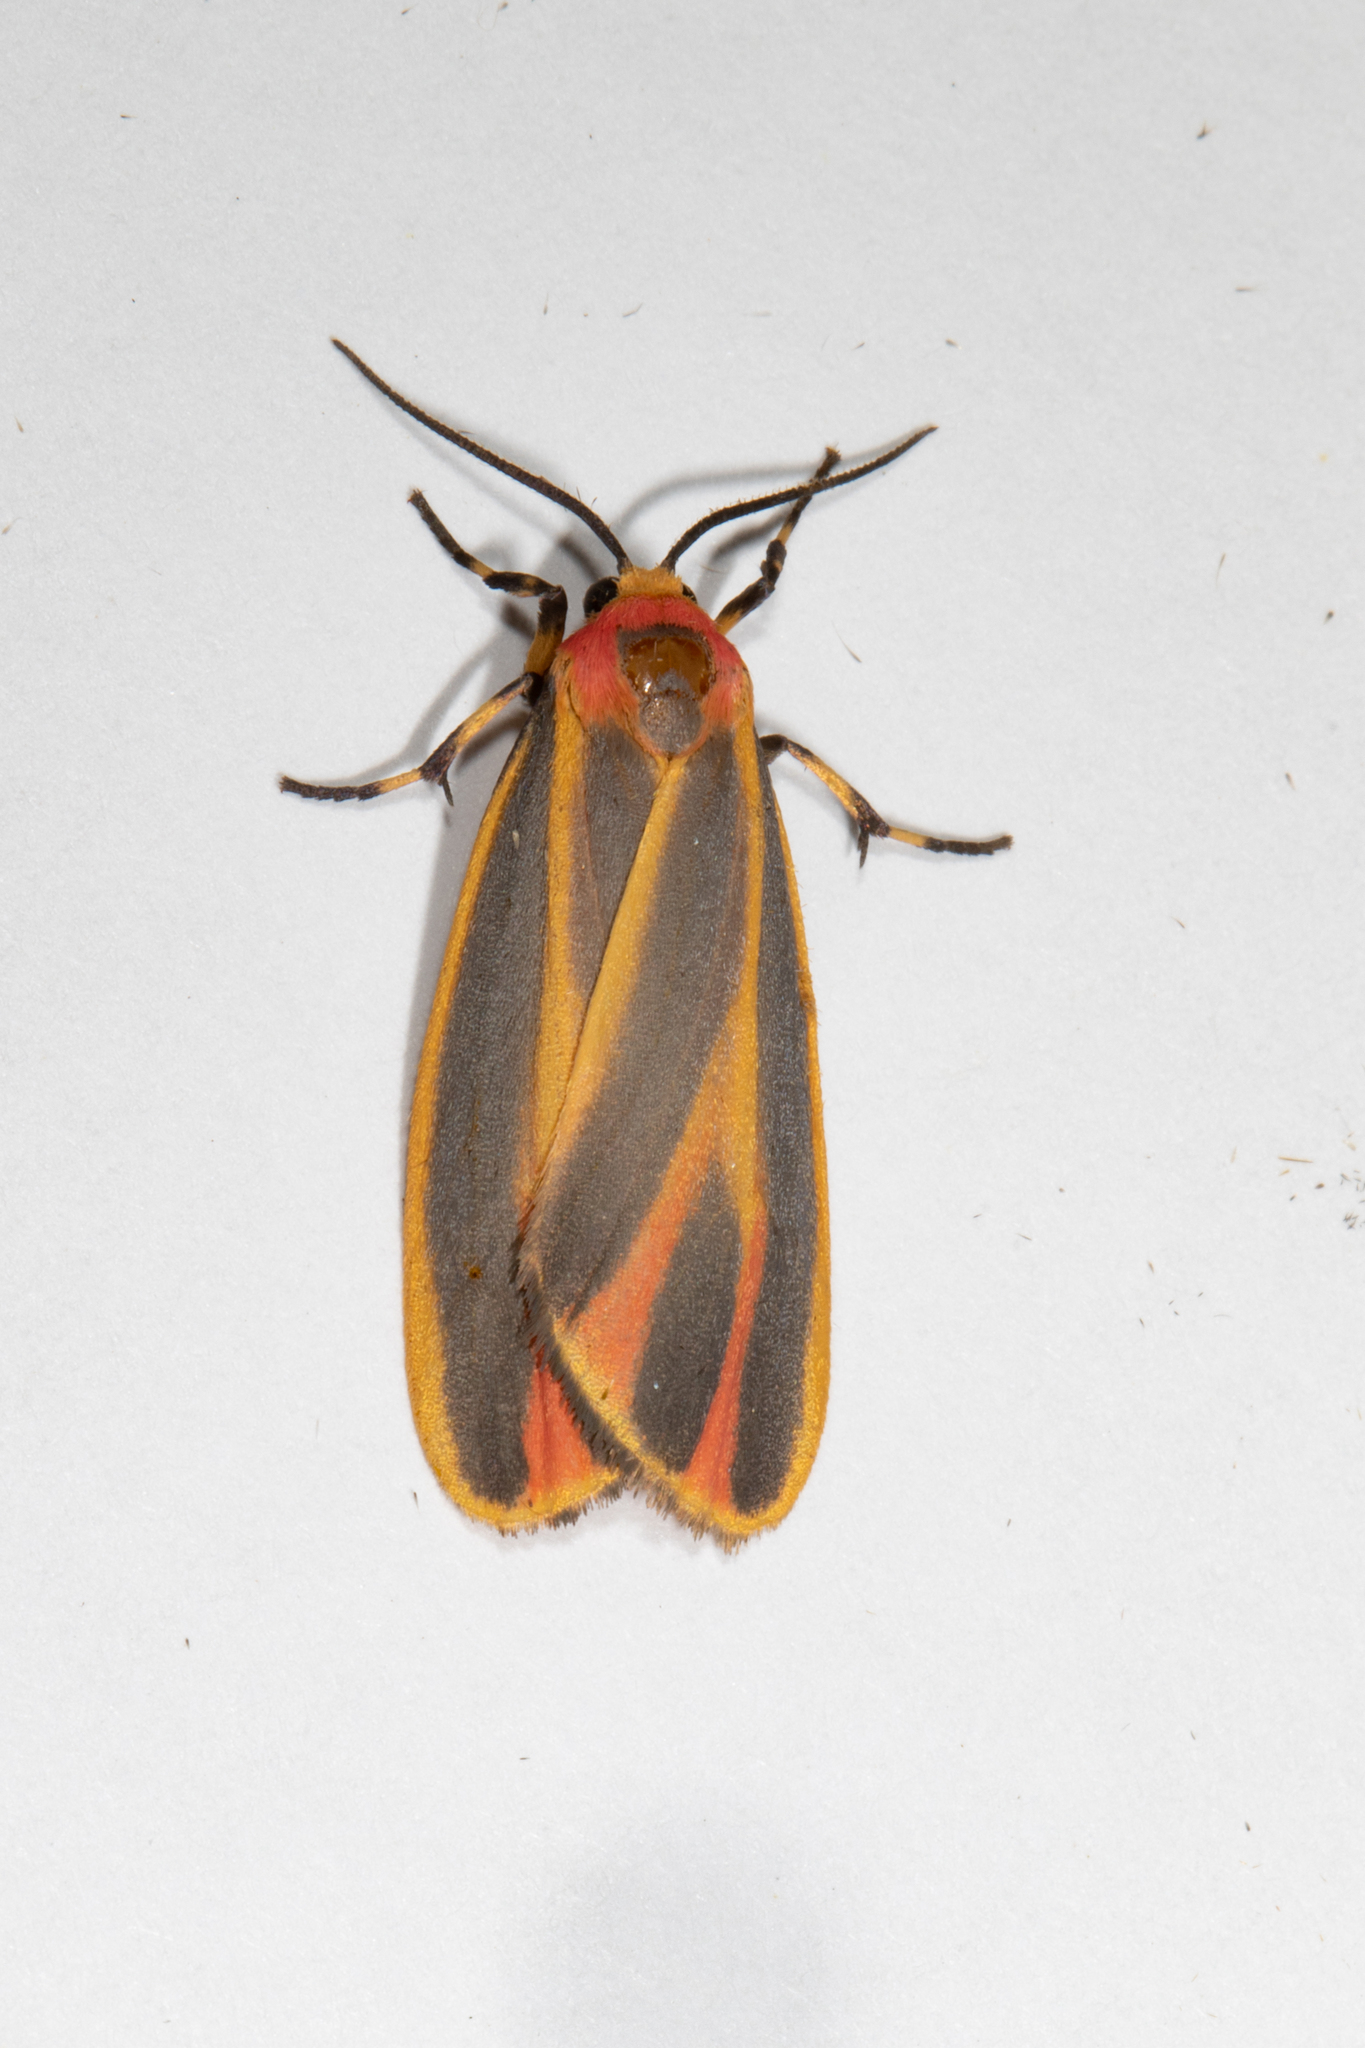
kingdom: Animalia
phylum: Arthropoda
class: Insecta
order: Lepidoptera
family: Erebidae
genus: Hypoprepia
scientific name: Hypoprepia fucosa
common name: Painted lichen moth
